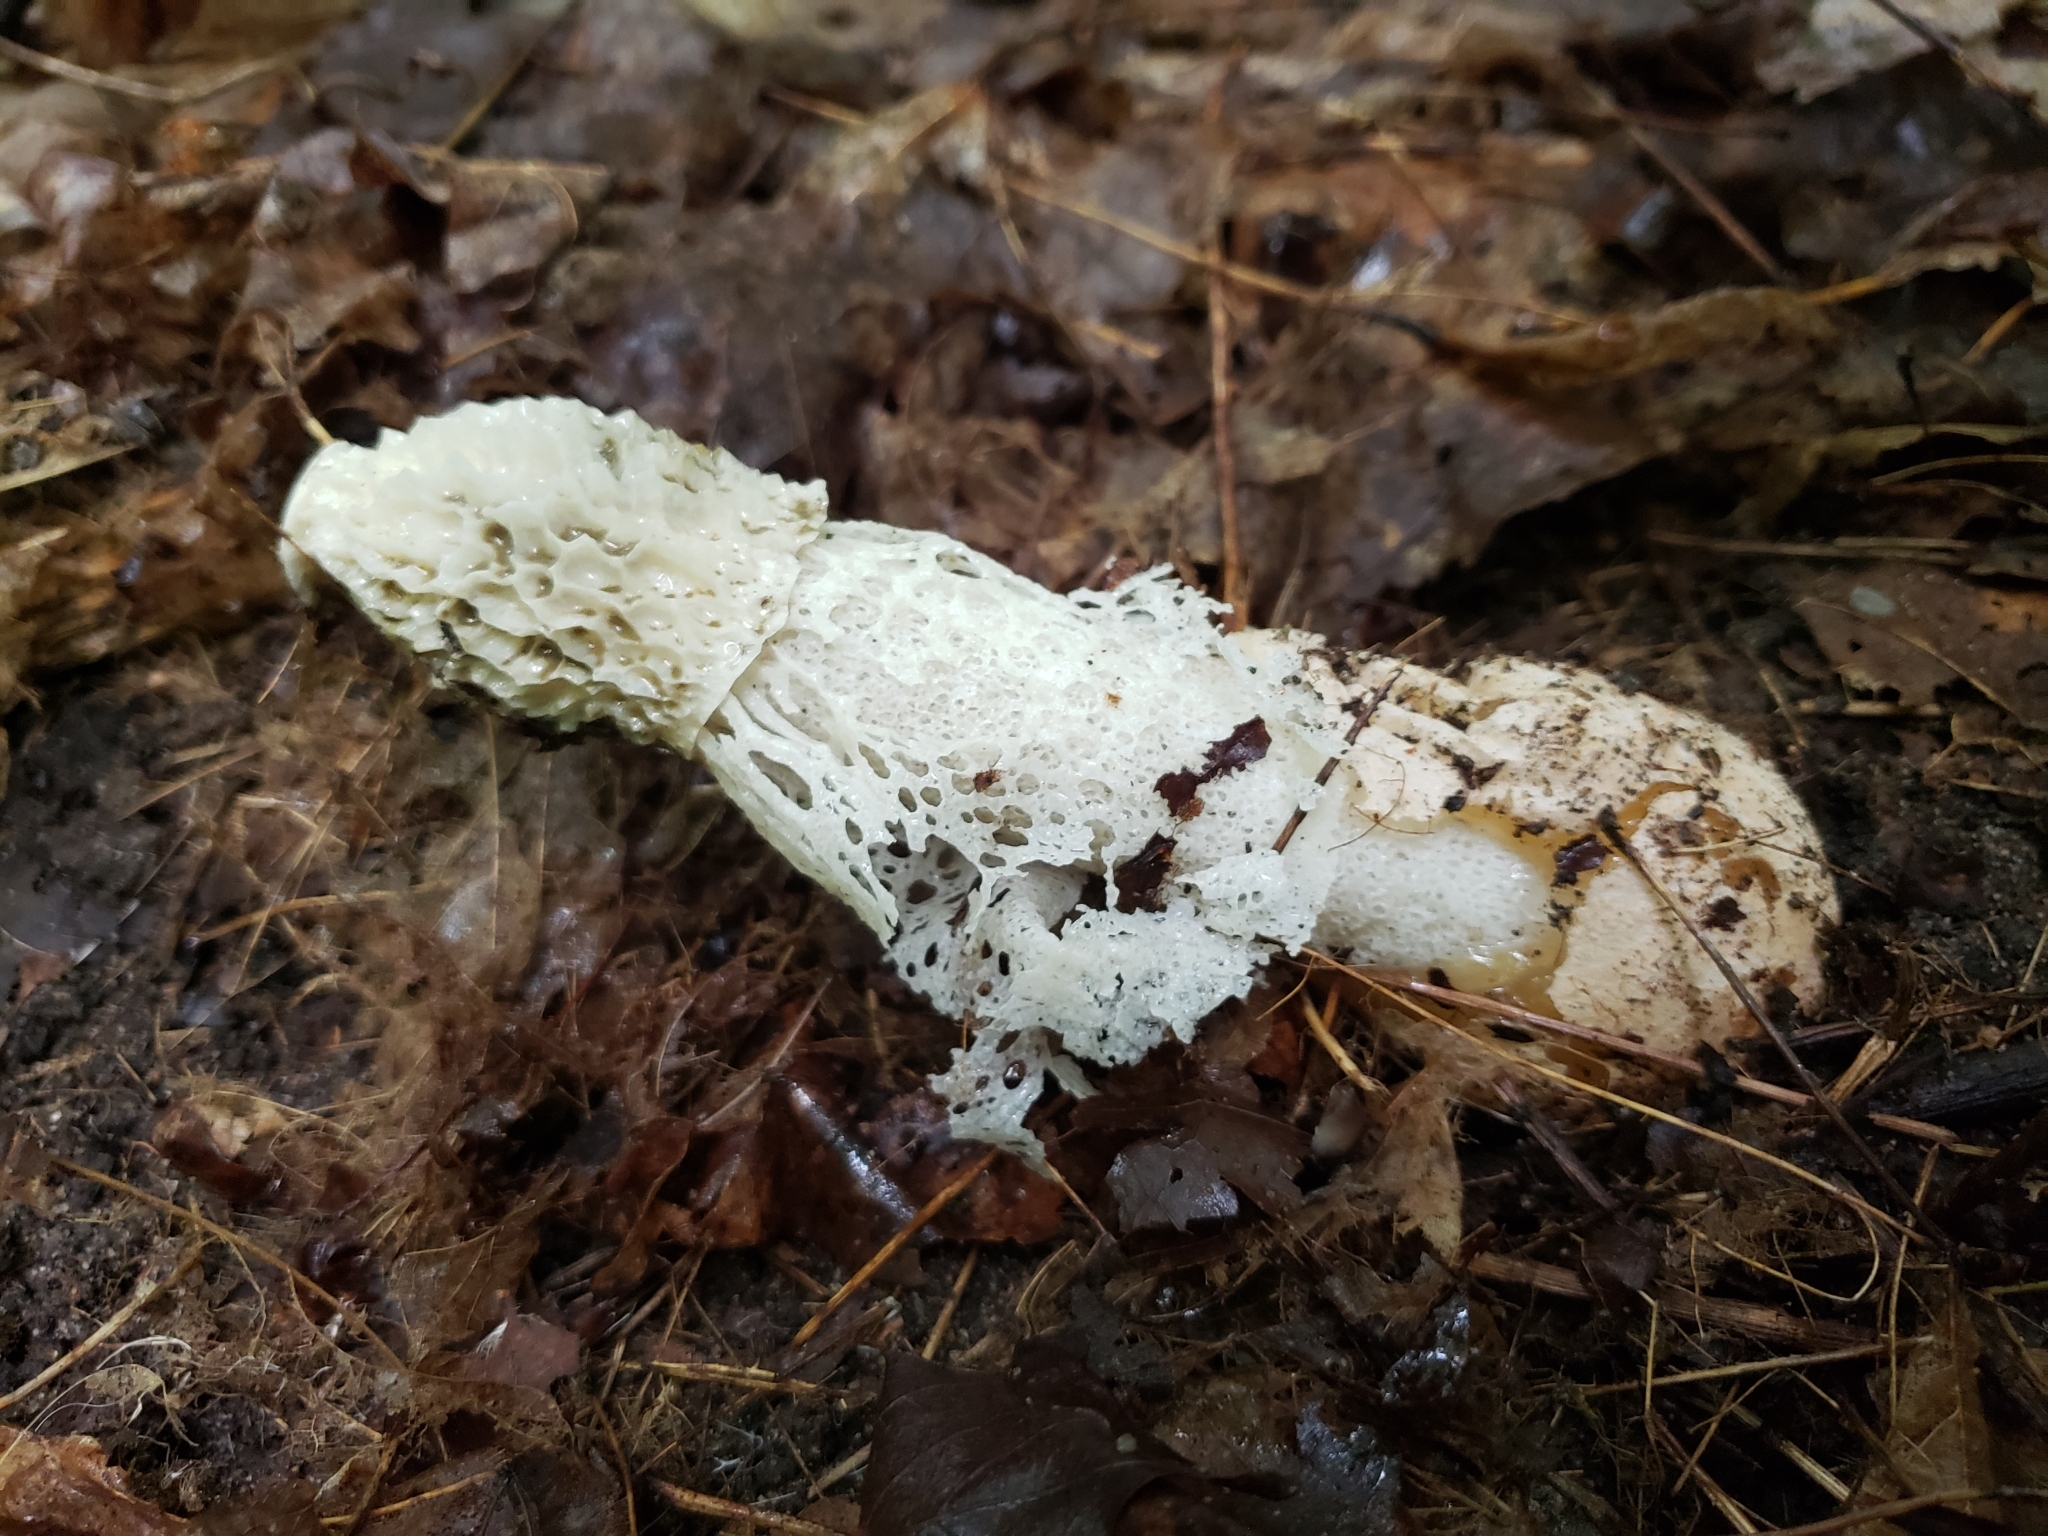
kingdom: Fungi
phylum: Basidiomycota
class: Agaricomycetes
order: Phallales
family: Phallaceae
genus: Phallus
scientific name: Phallus indusiatus
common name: Bridal veil stinkhorn
